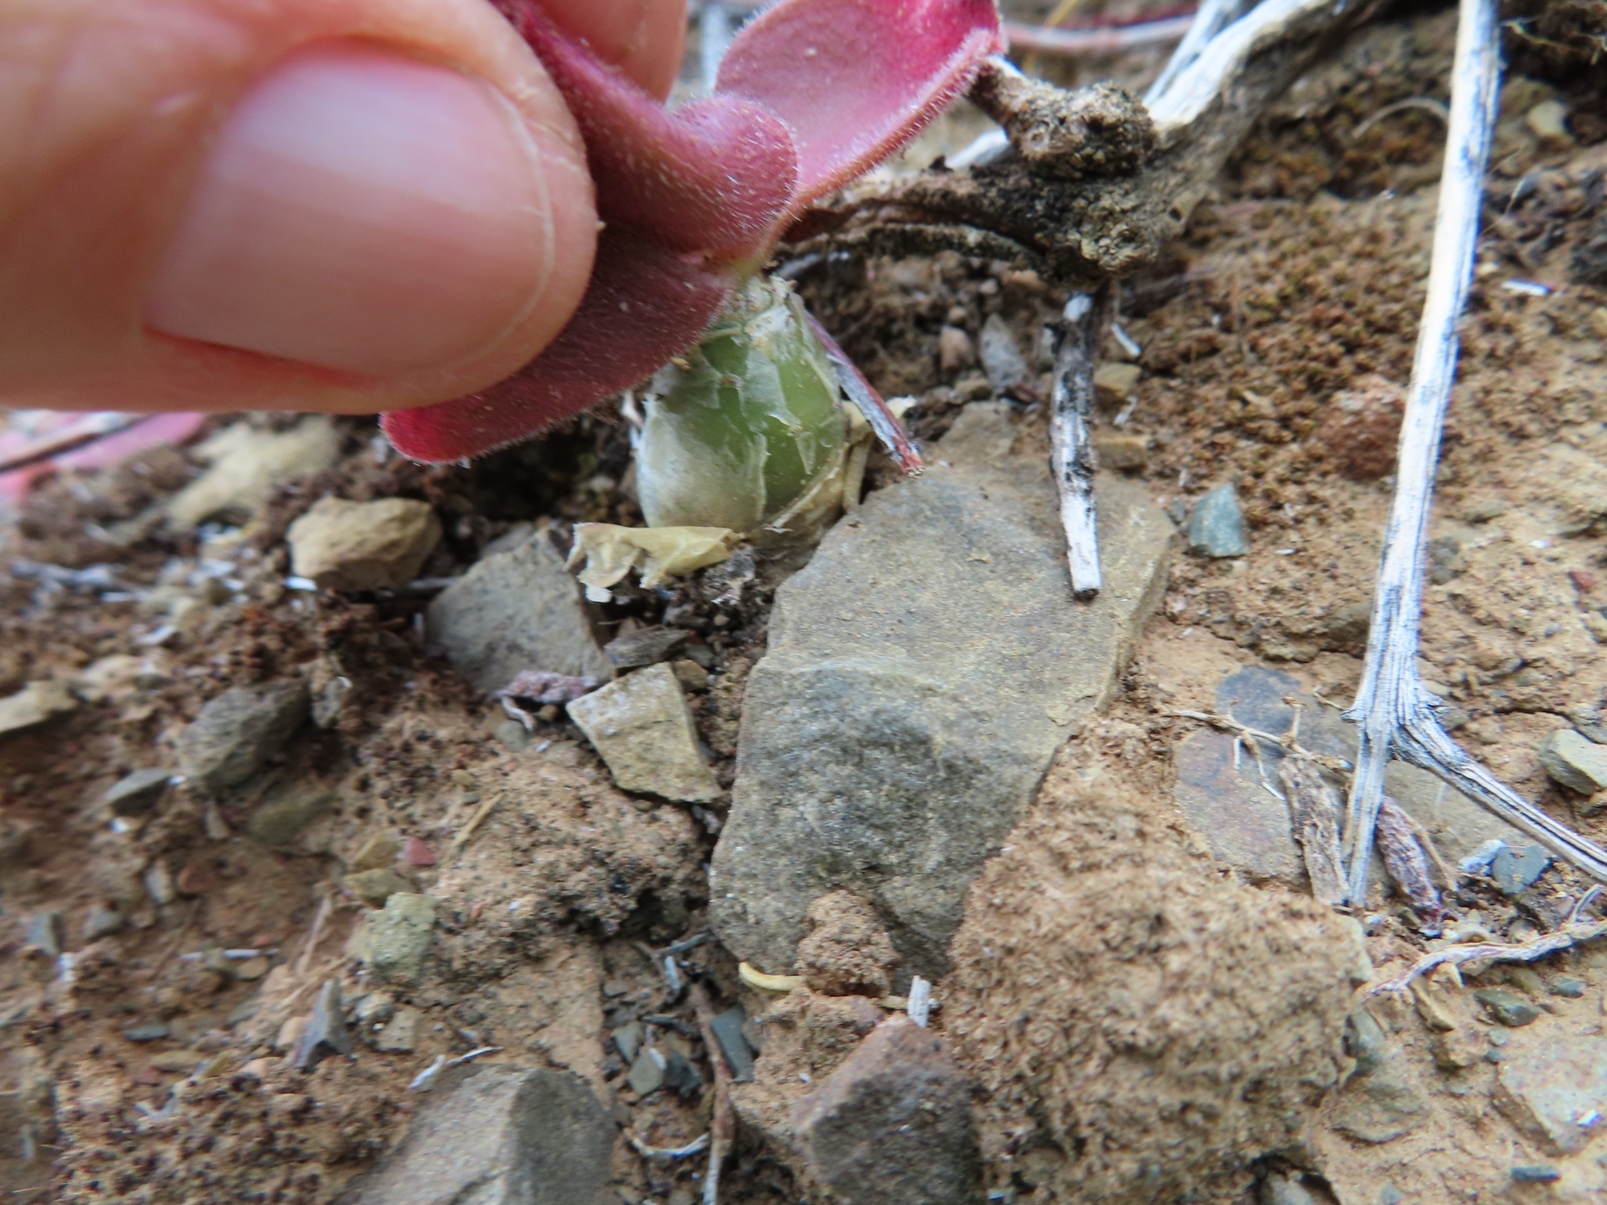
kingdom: Plantae
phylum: Tracheophyta
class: Magnoliopsida
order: Saxifragales
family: Crassulaceae
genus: Tylecodon
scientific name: Tylecodon paniculatus
